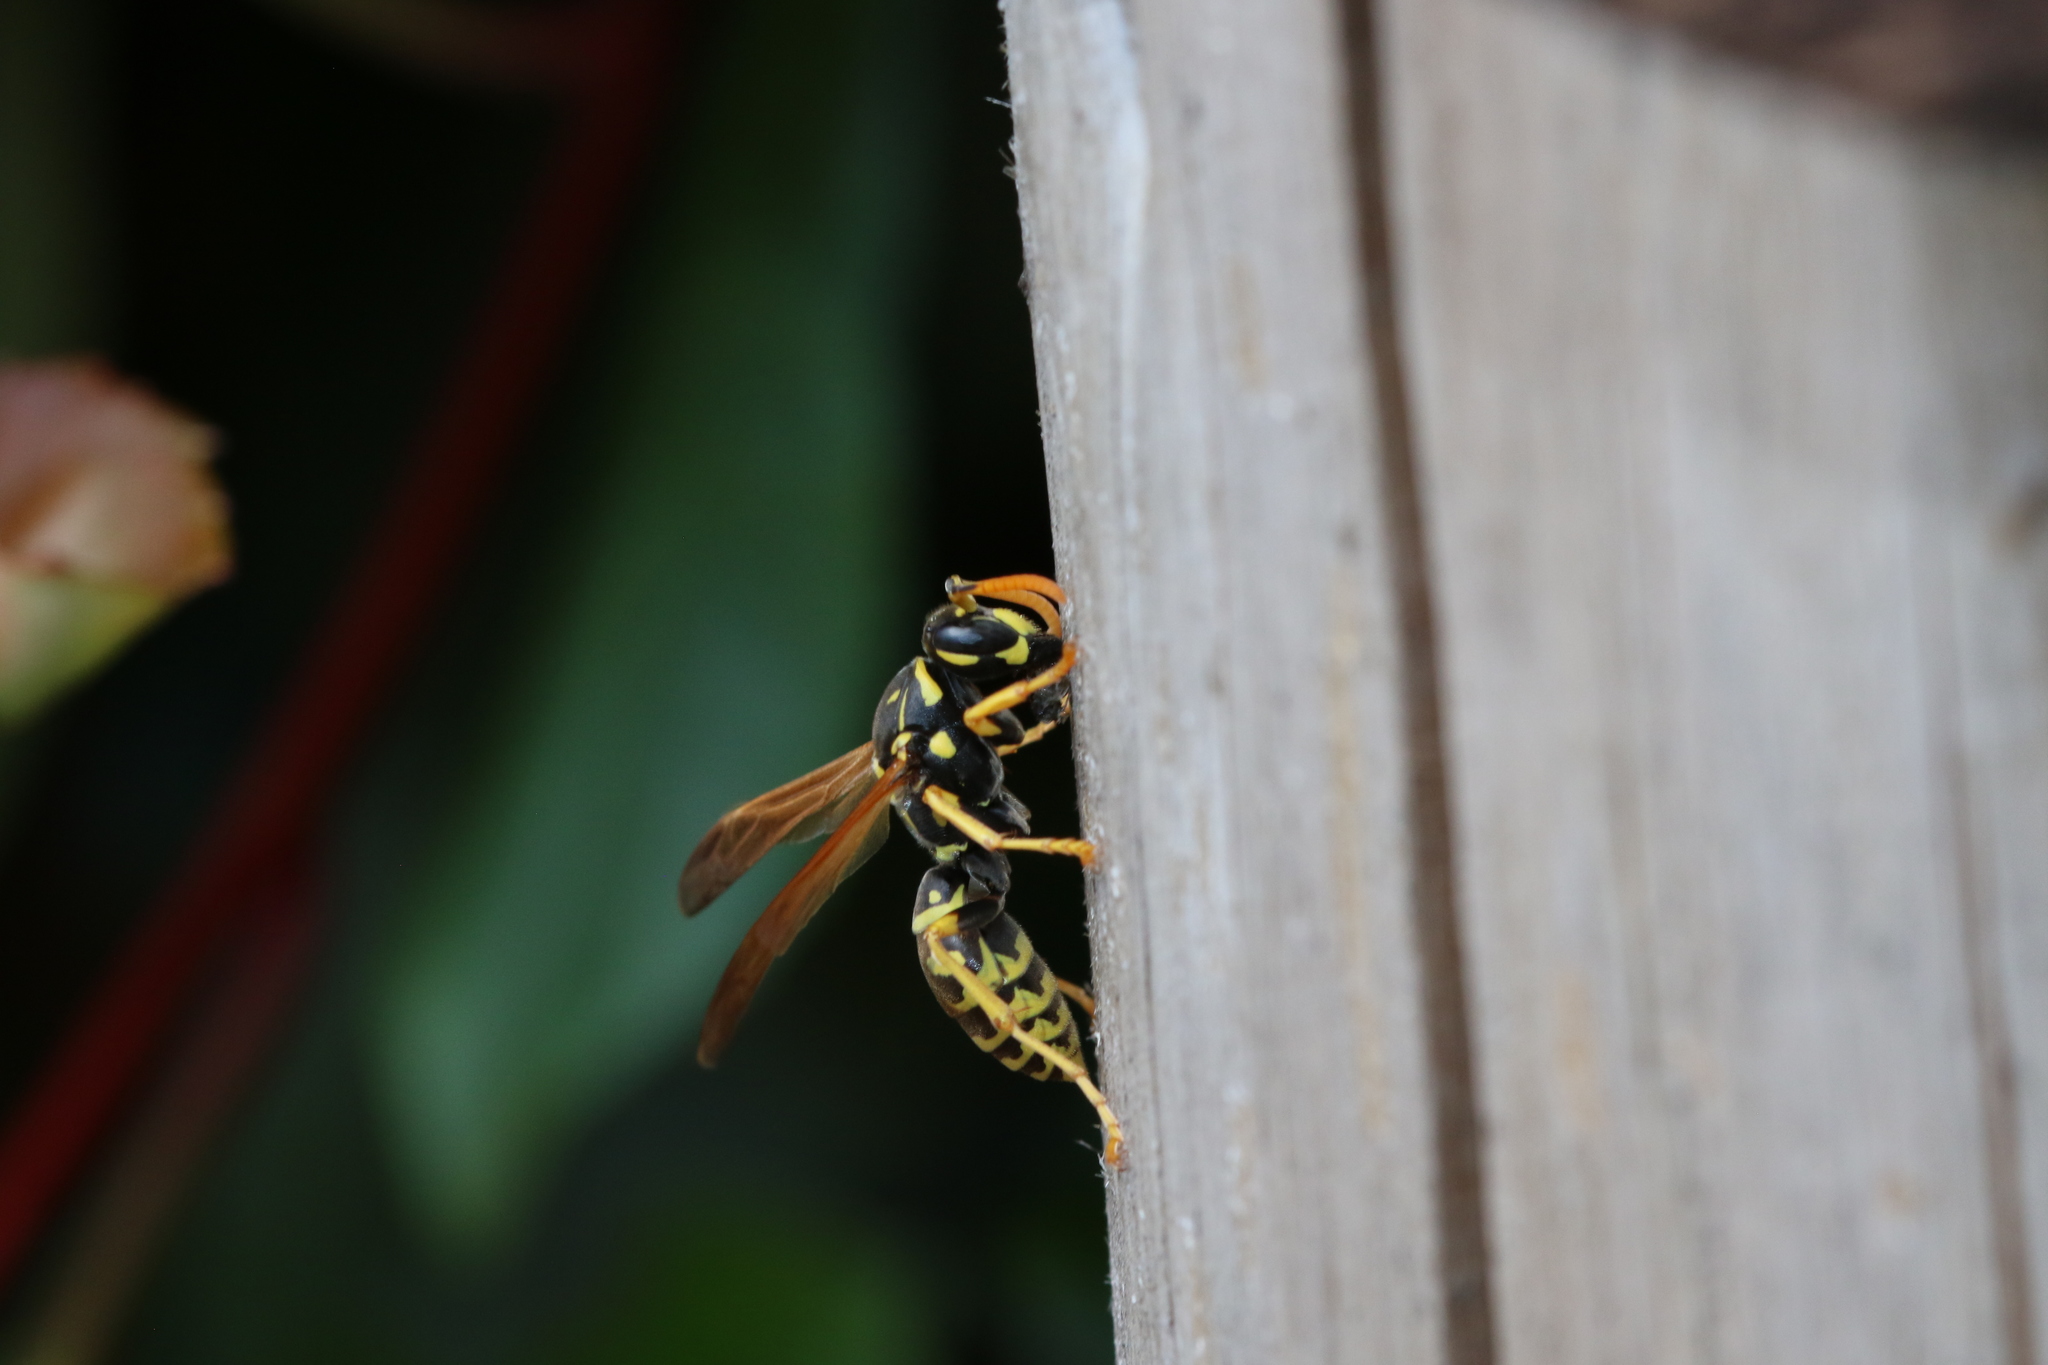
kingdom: Animalia
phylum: Arthropoda
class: Insecta
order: Hymenoptera
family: Eumenidae
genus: Polistes
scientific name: Polistes dominula
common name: Paper wasp
